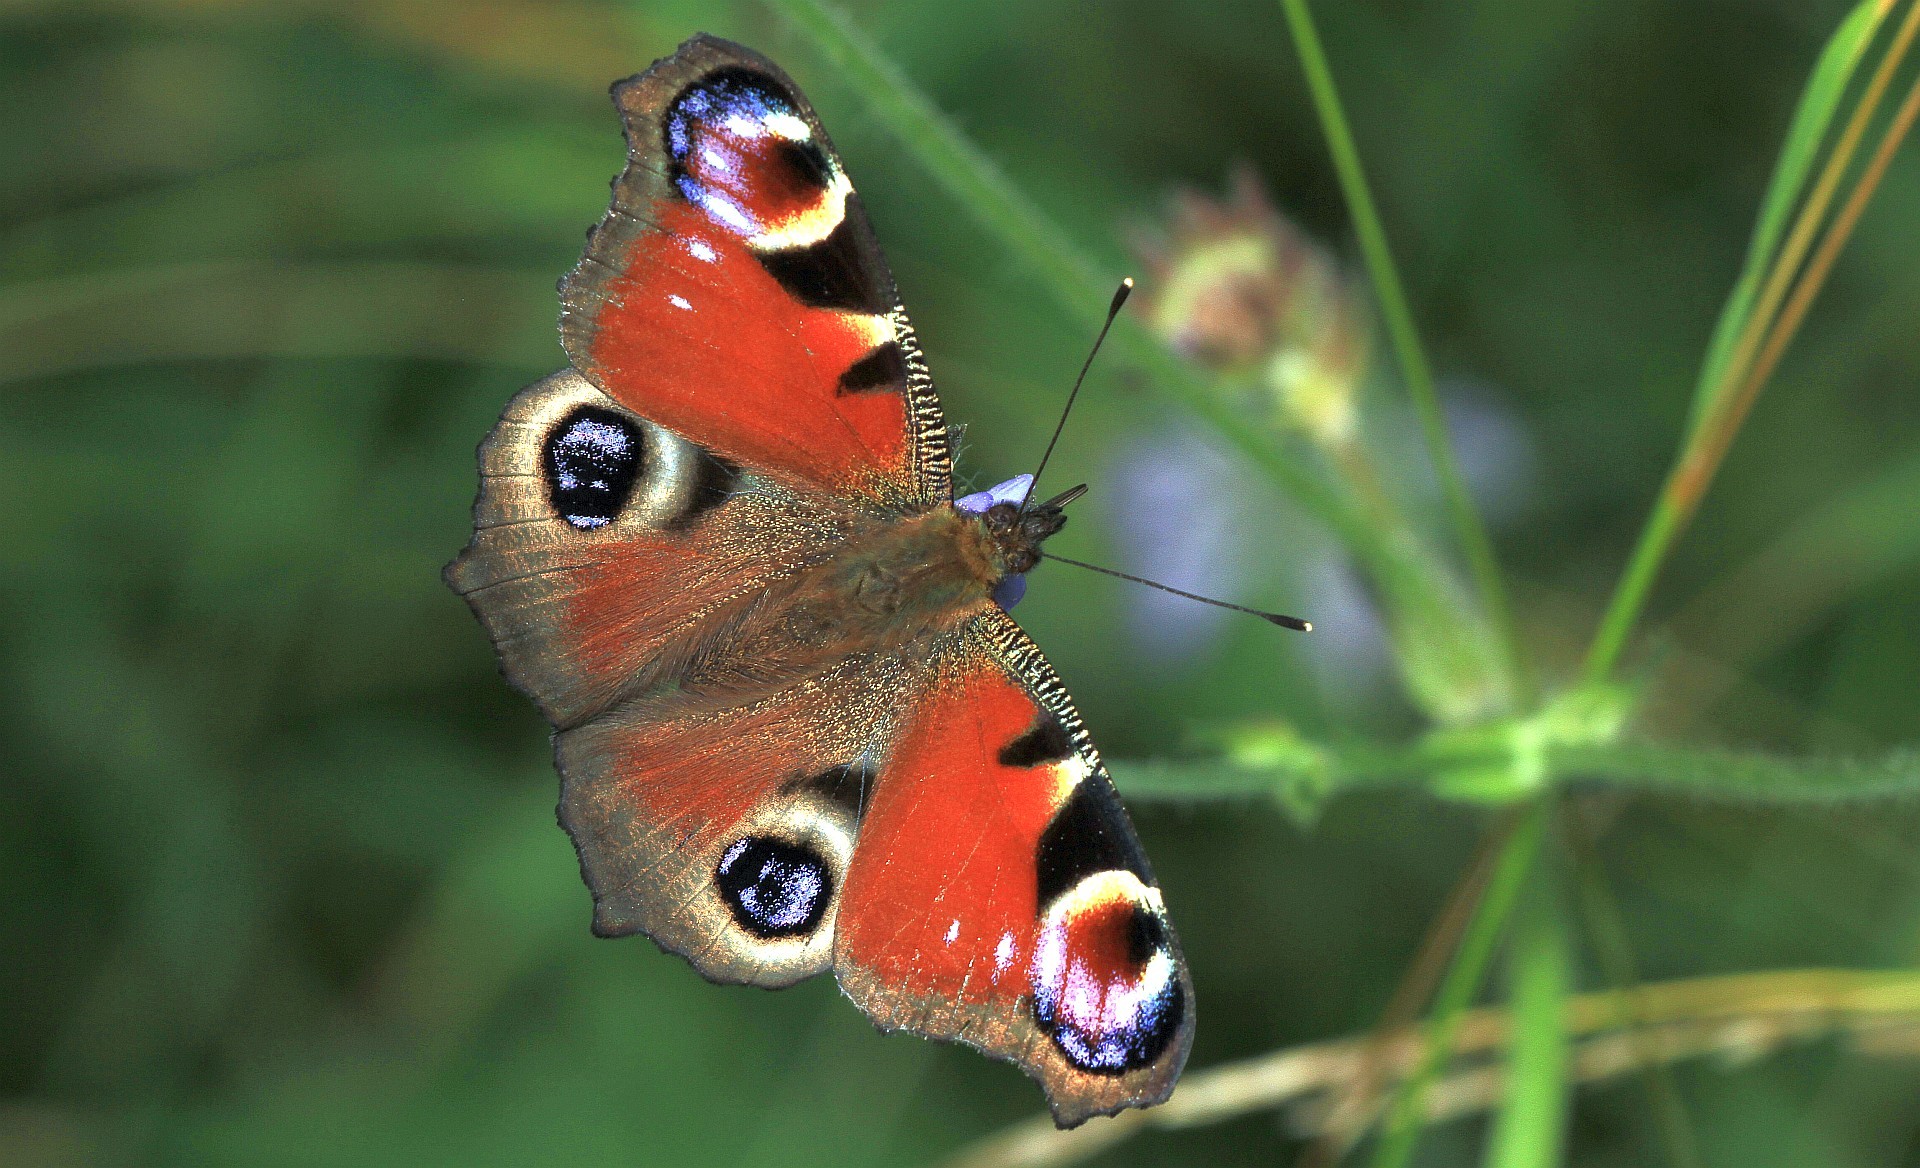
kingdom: Animalia
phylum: Arthropoda
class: Insecta
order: Lepidoptera
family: Nymphalidae
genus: Aglais
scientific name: Aglais io
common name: Peacock
